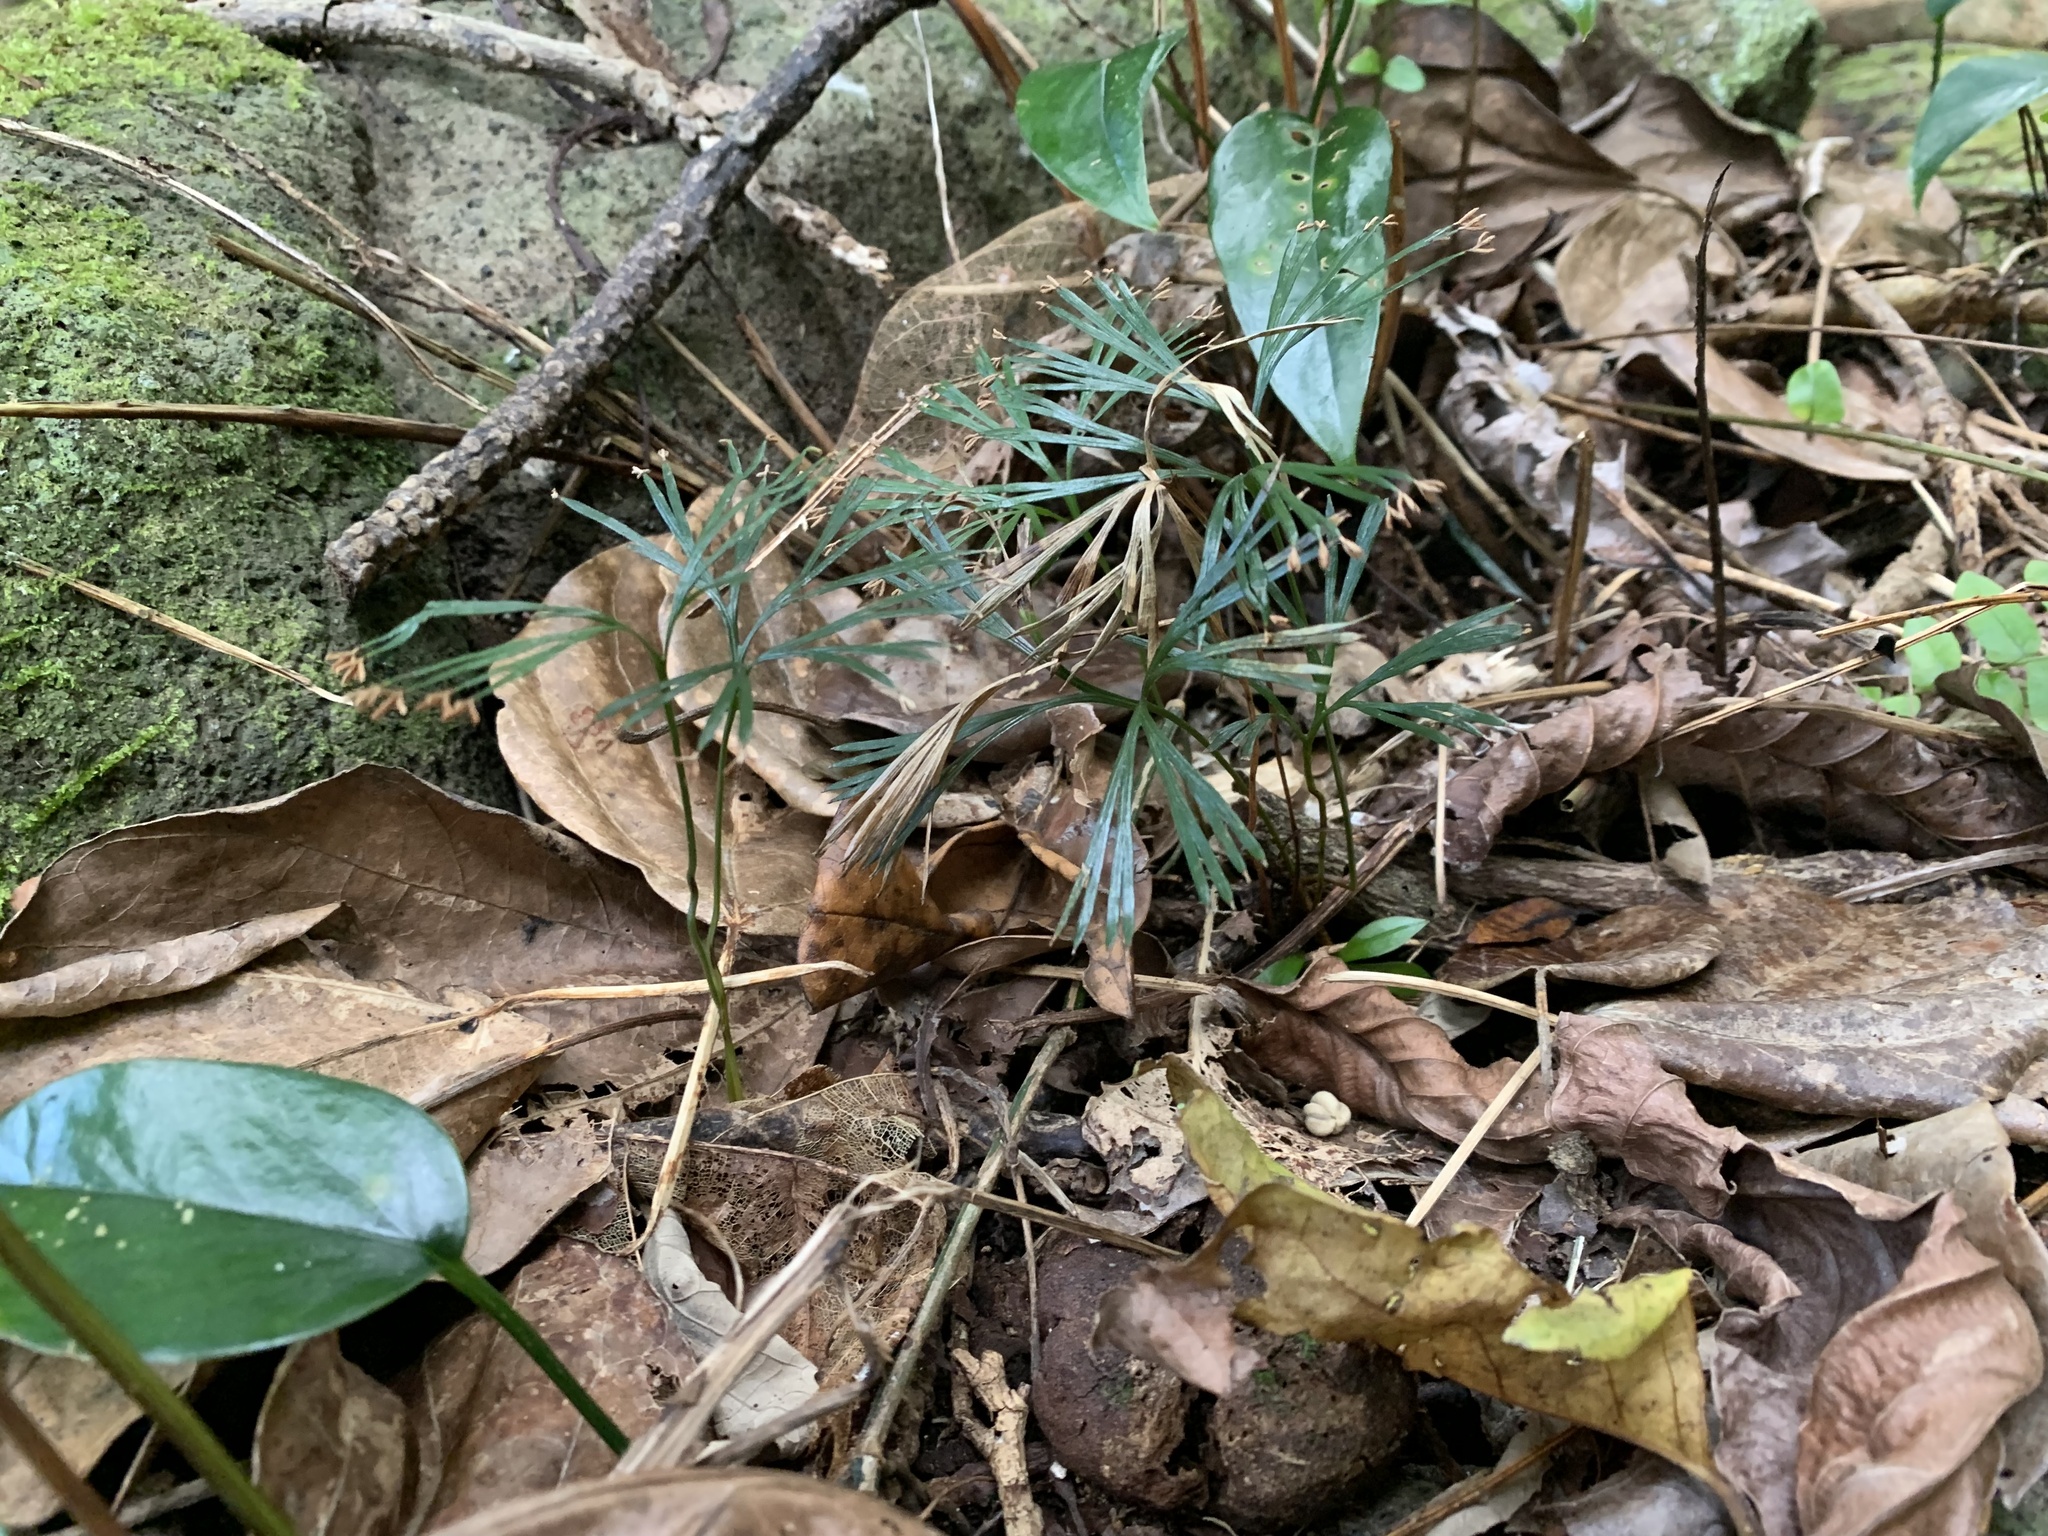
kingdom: Plantae
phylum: Tracheophyta
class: Polypodiopsida
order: Schizaeales
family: Schizaeaceae
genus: Schizaea
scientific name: Schizaea dichotoma
